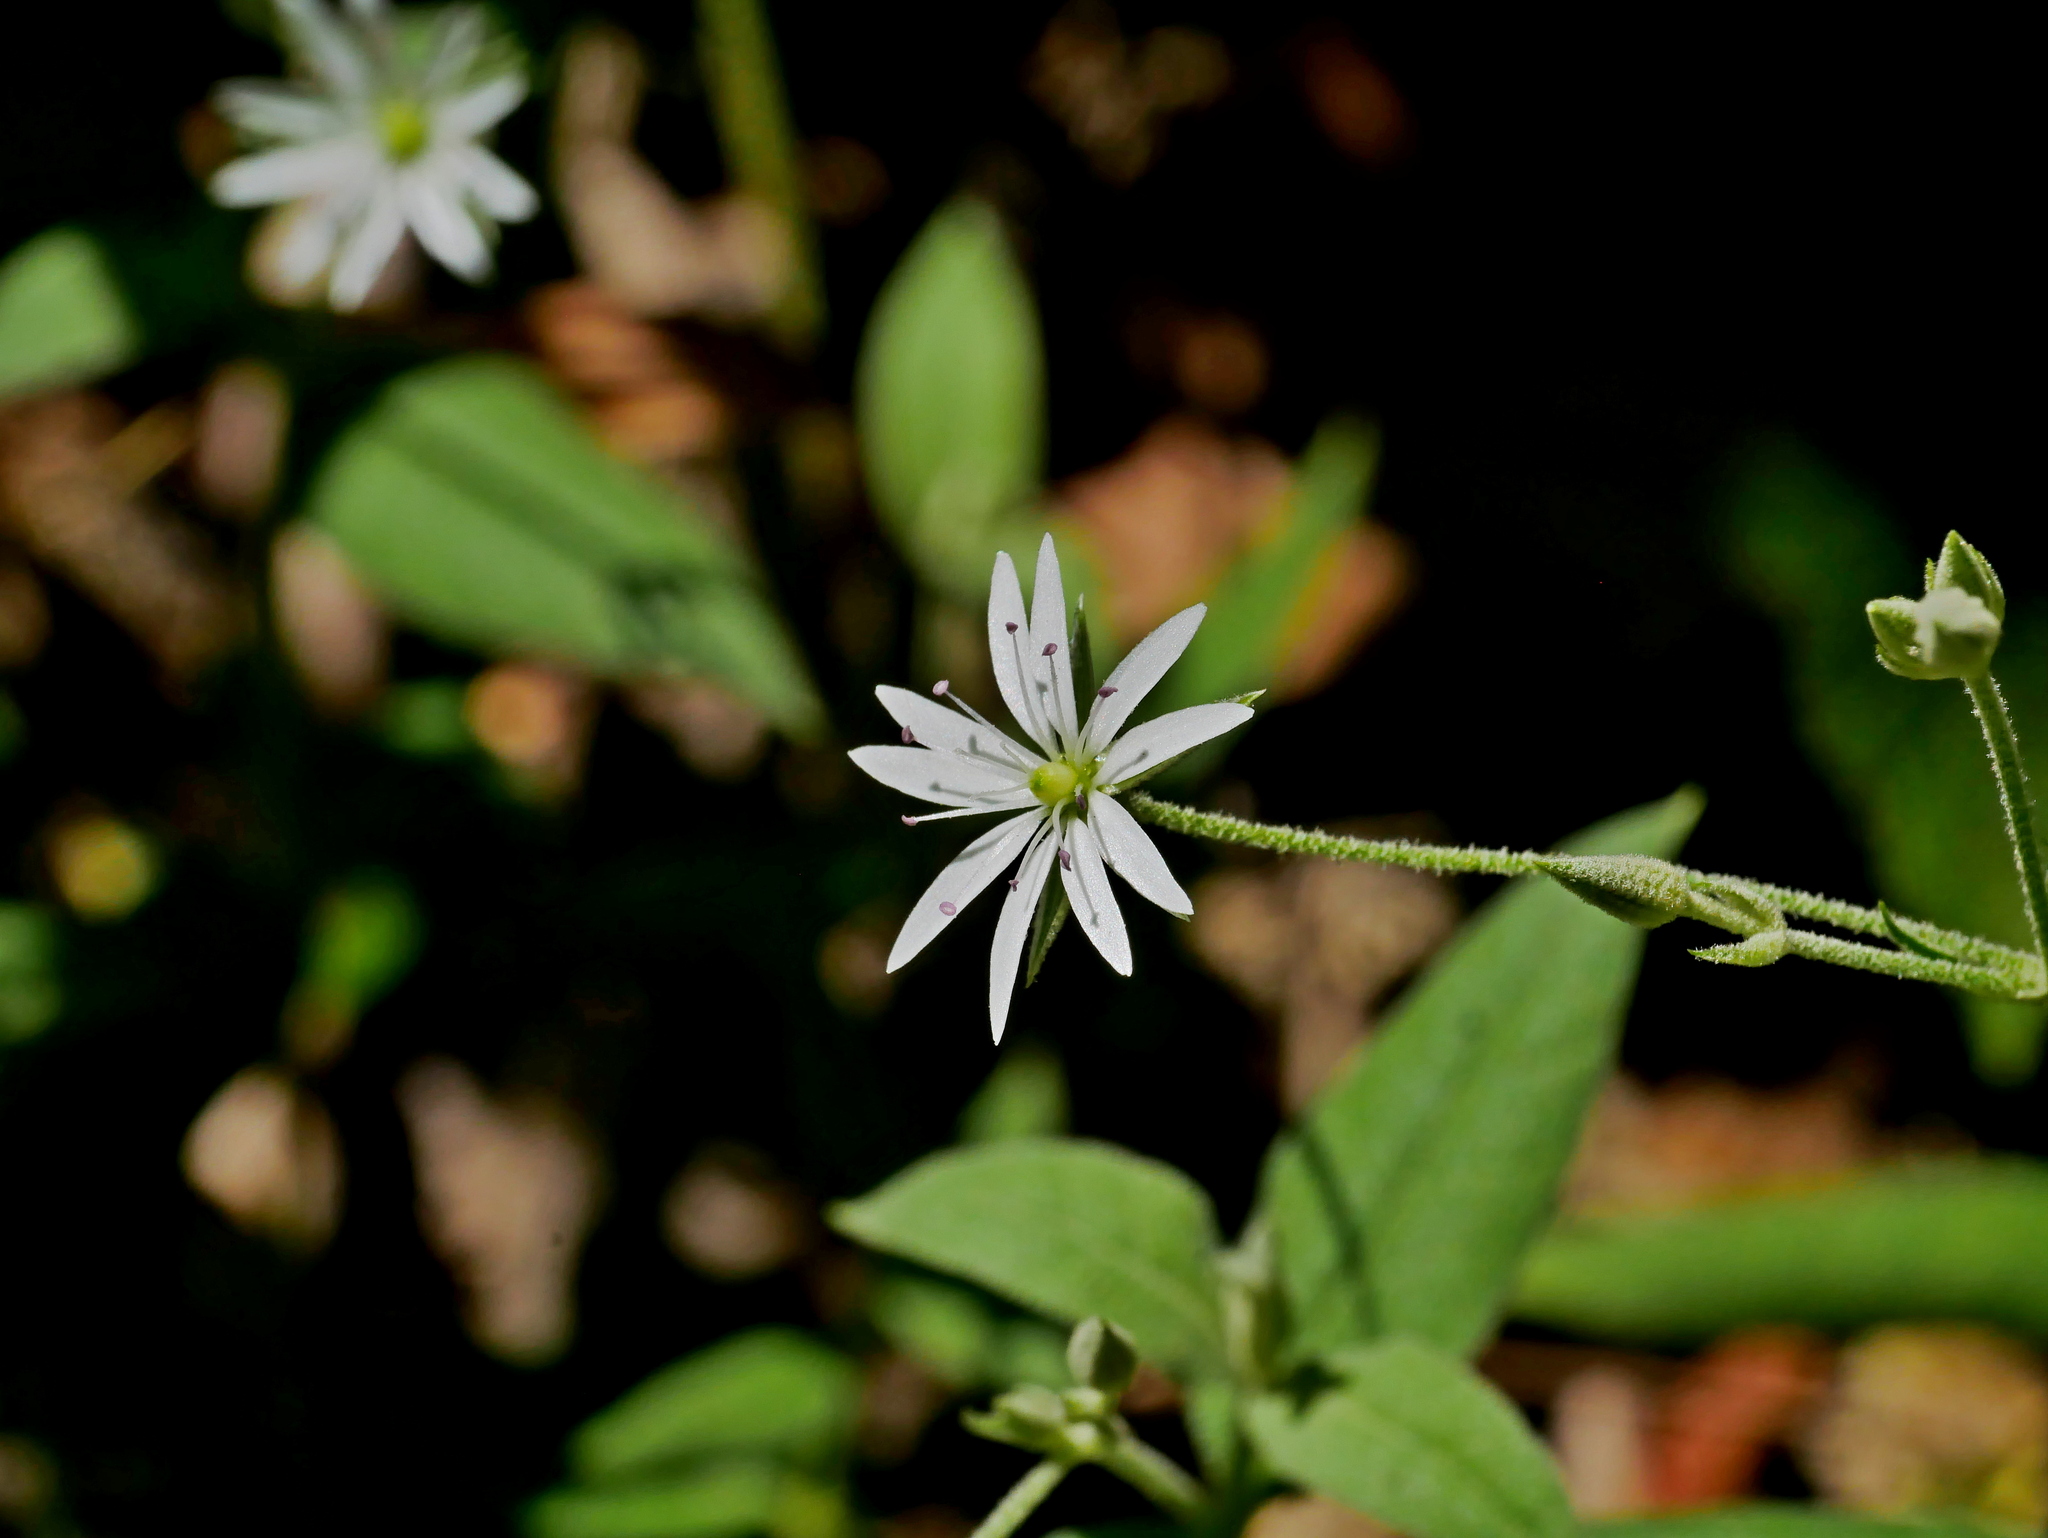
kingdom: Plantae
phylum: Tracheophyta
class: Magnoliopsida
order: Caryophyllales
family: Caryophyllaceae
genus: Stellaria
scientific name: Stellaria vestita
